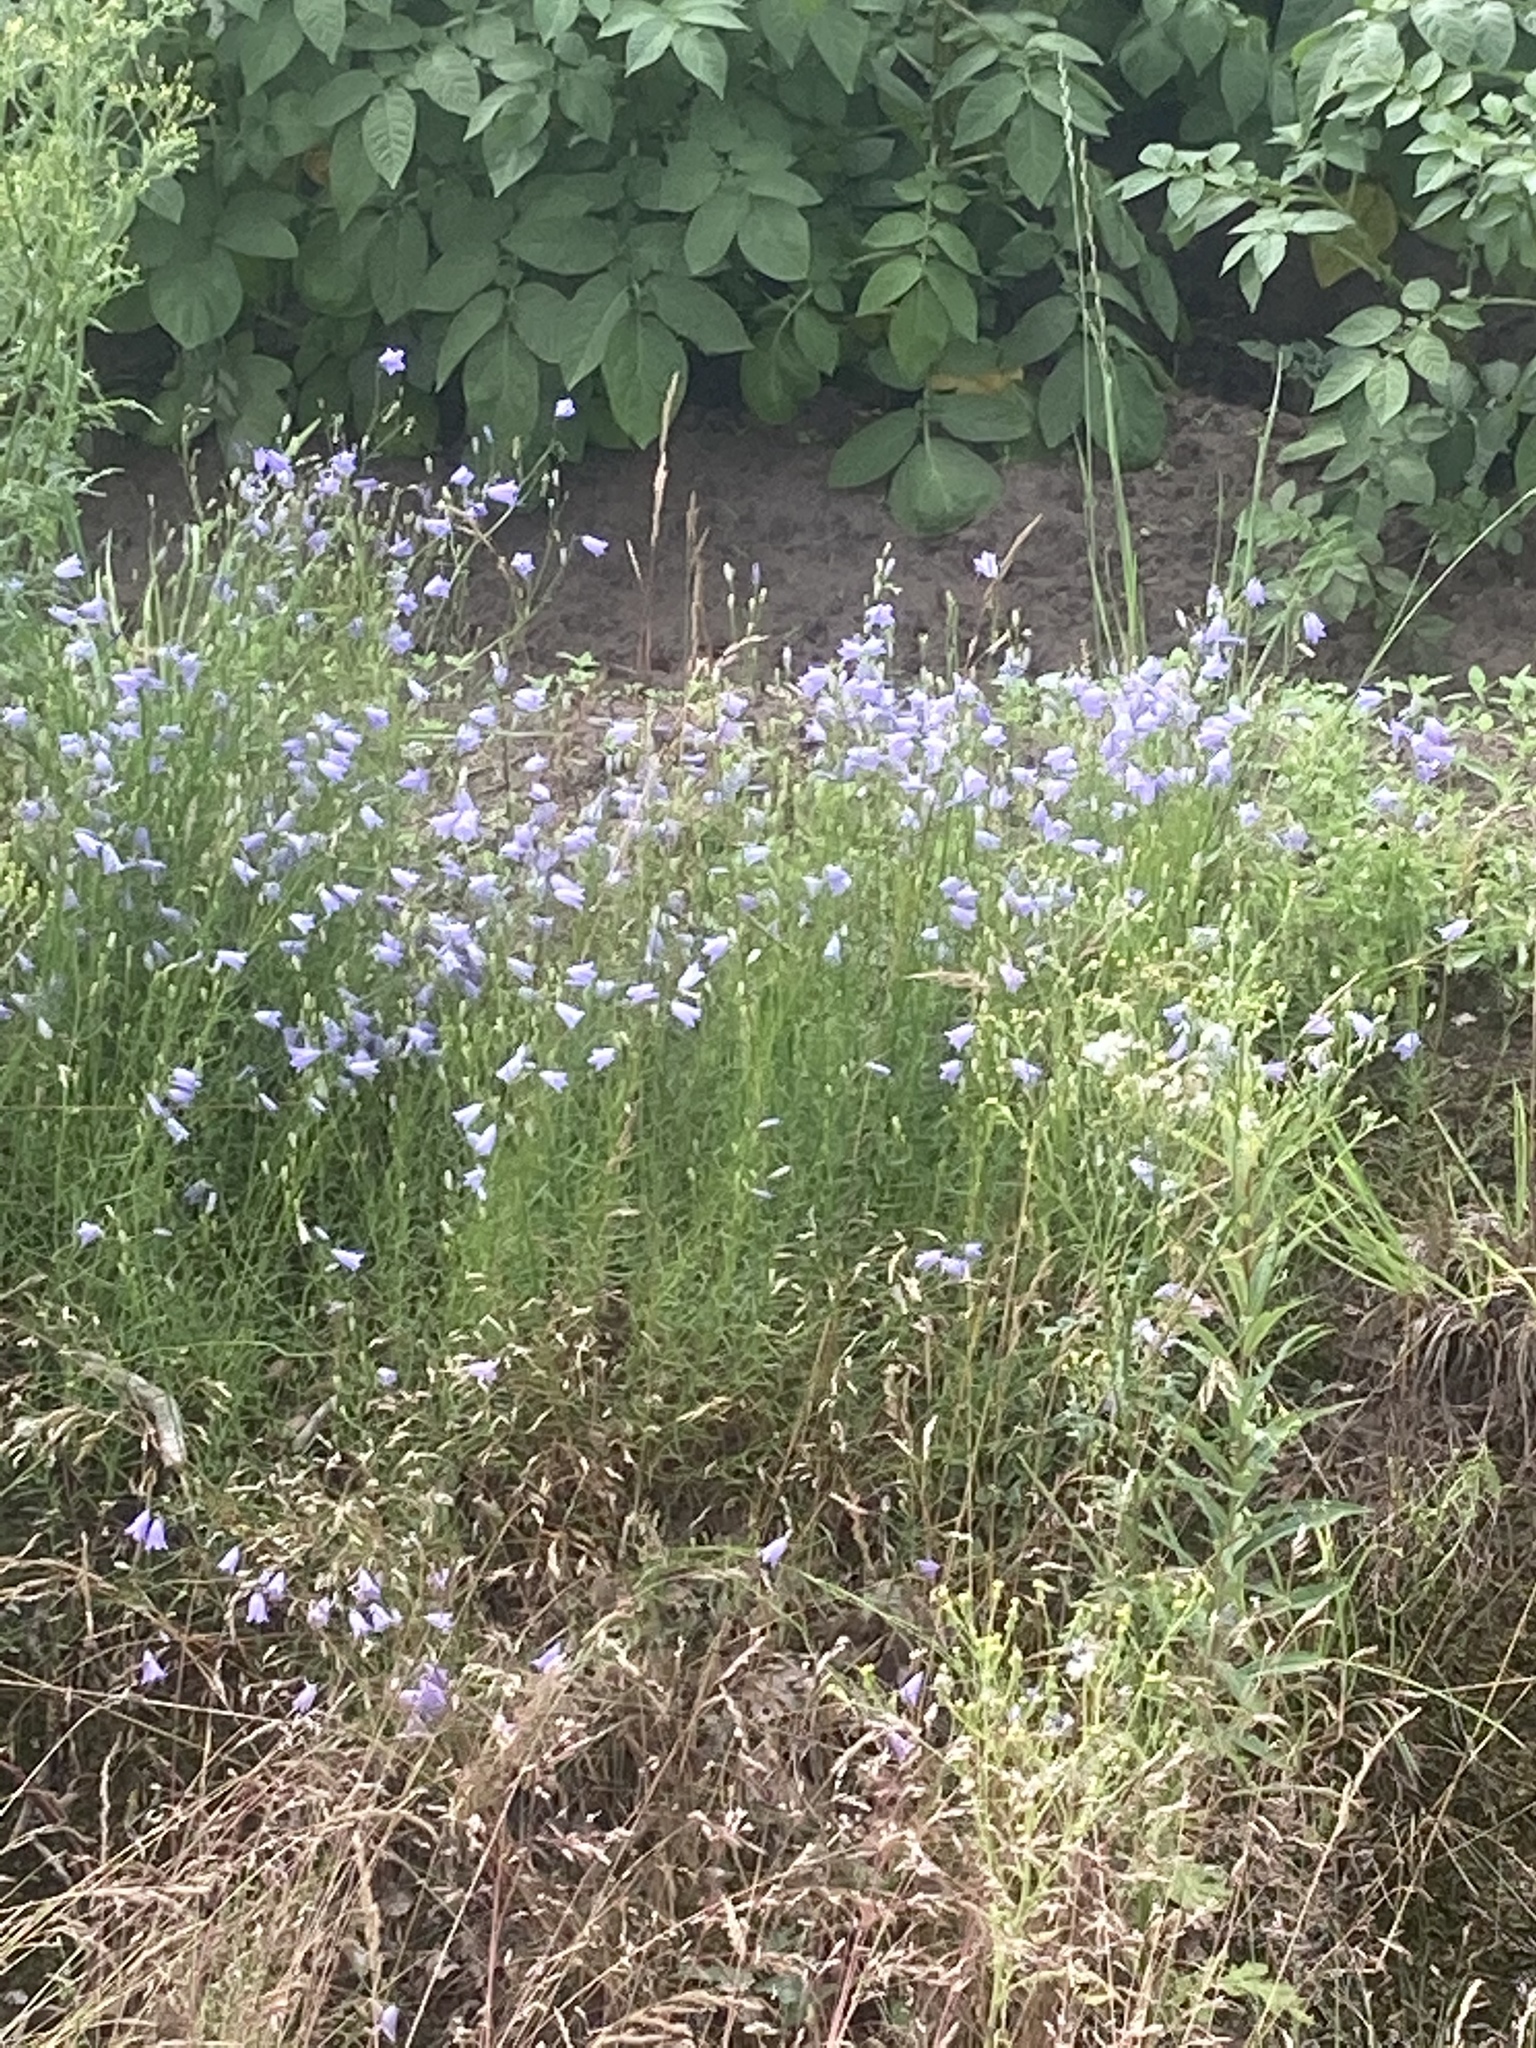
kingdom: Plantae
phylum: Tracheophyta
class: Magnoliopsida
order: Asterales
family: Campanulaceae
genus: Campanula
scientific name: Campanula rotundifolia
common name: Harebell
